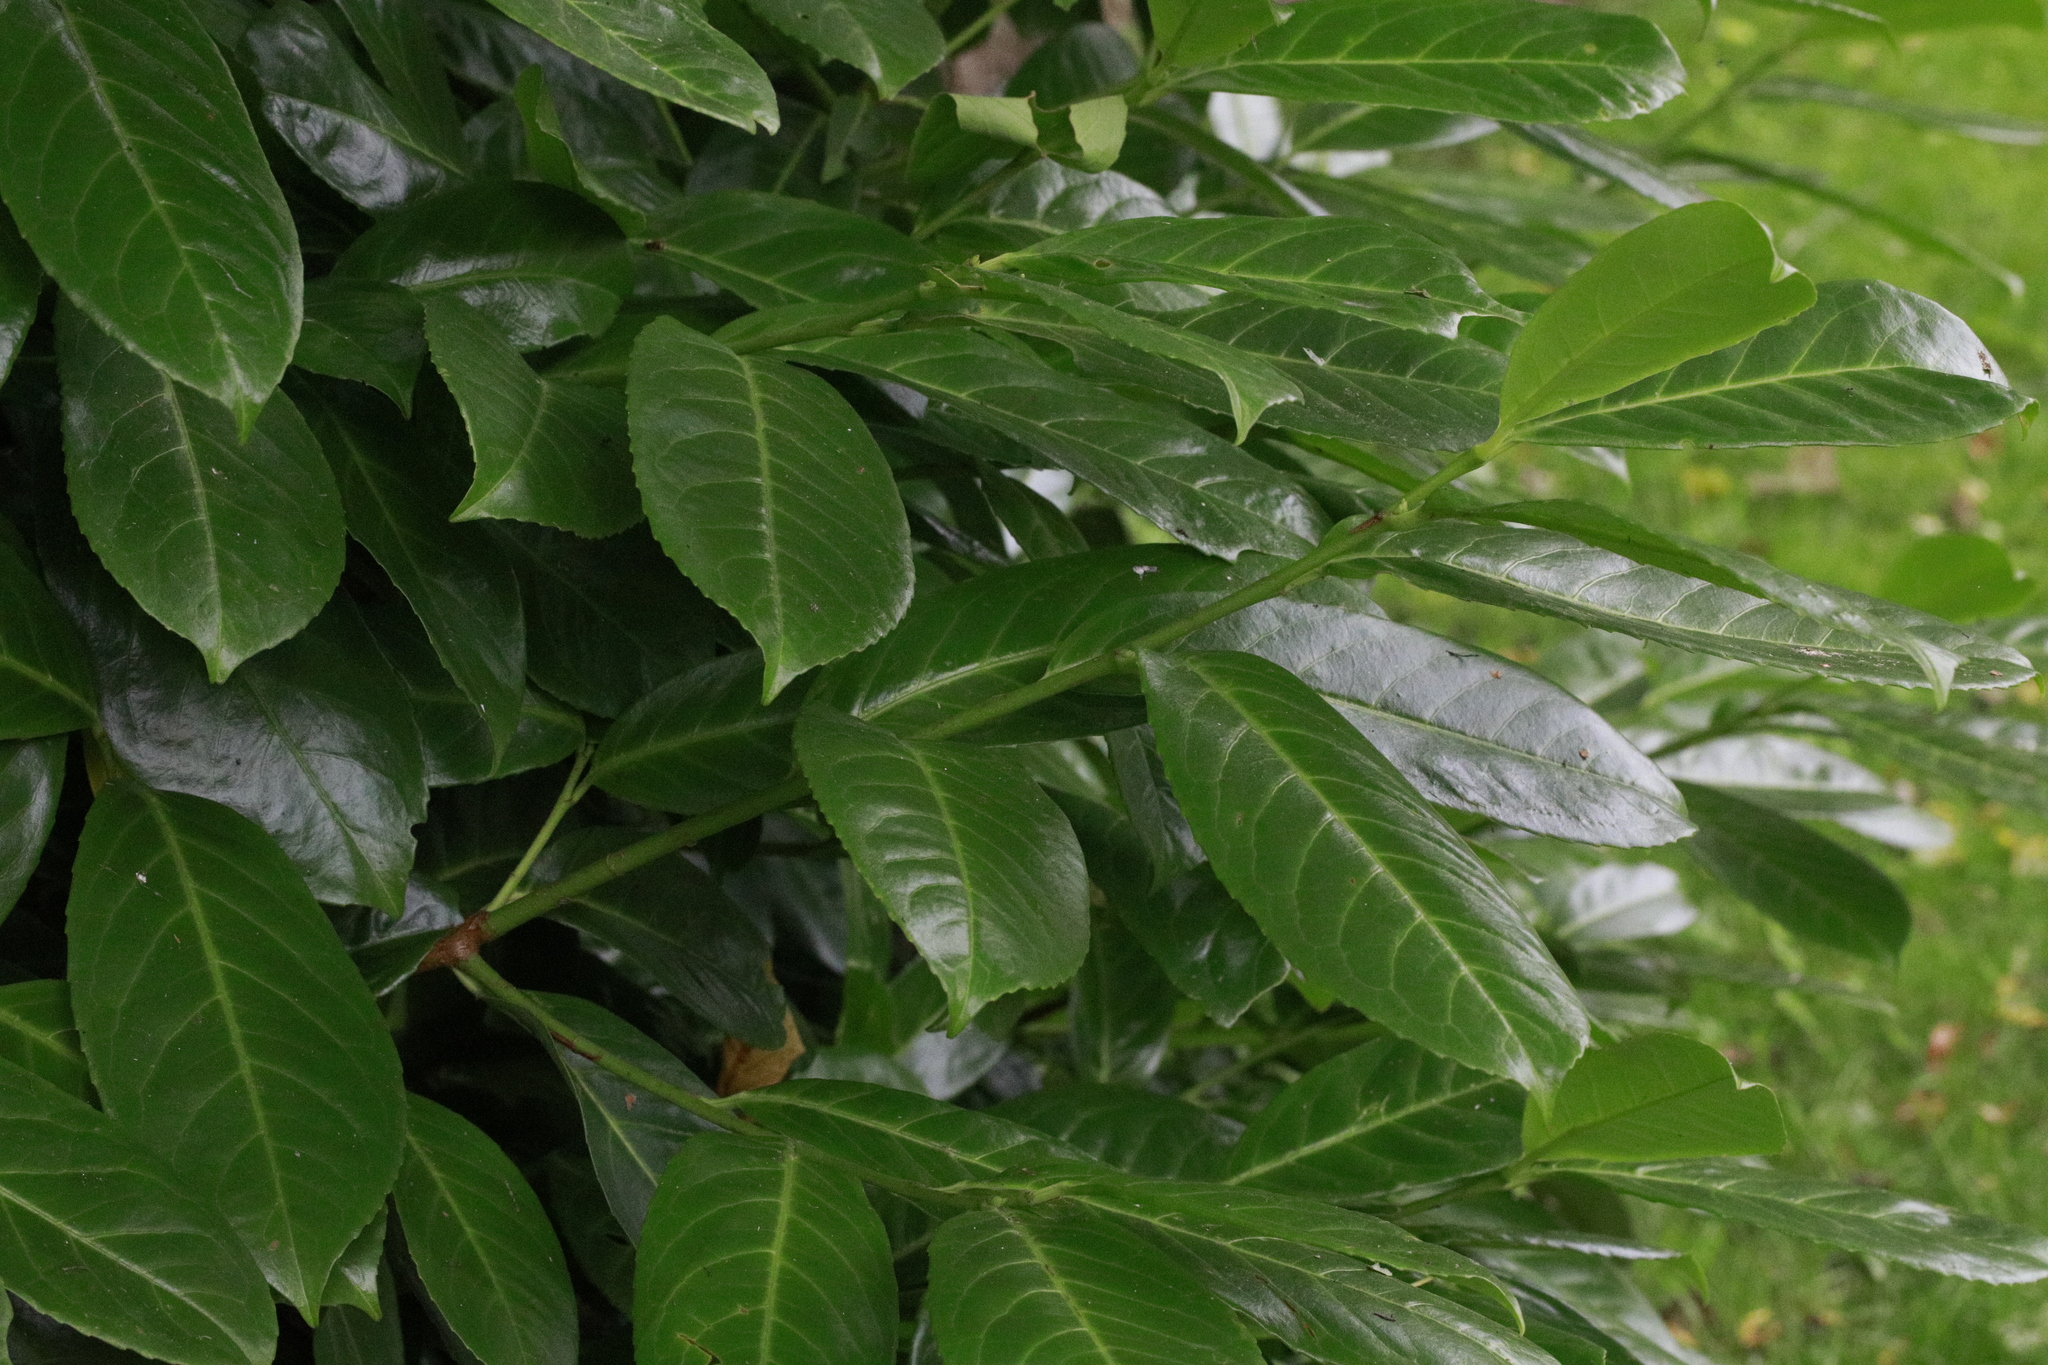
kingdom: Plantae
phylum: Tracheophyta
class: Magnoliopsida
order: Rosales
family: Rosaceae
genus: Prunus
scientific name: Prunus laurocerasus
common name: Cherry laurel
